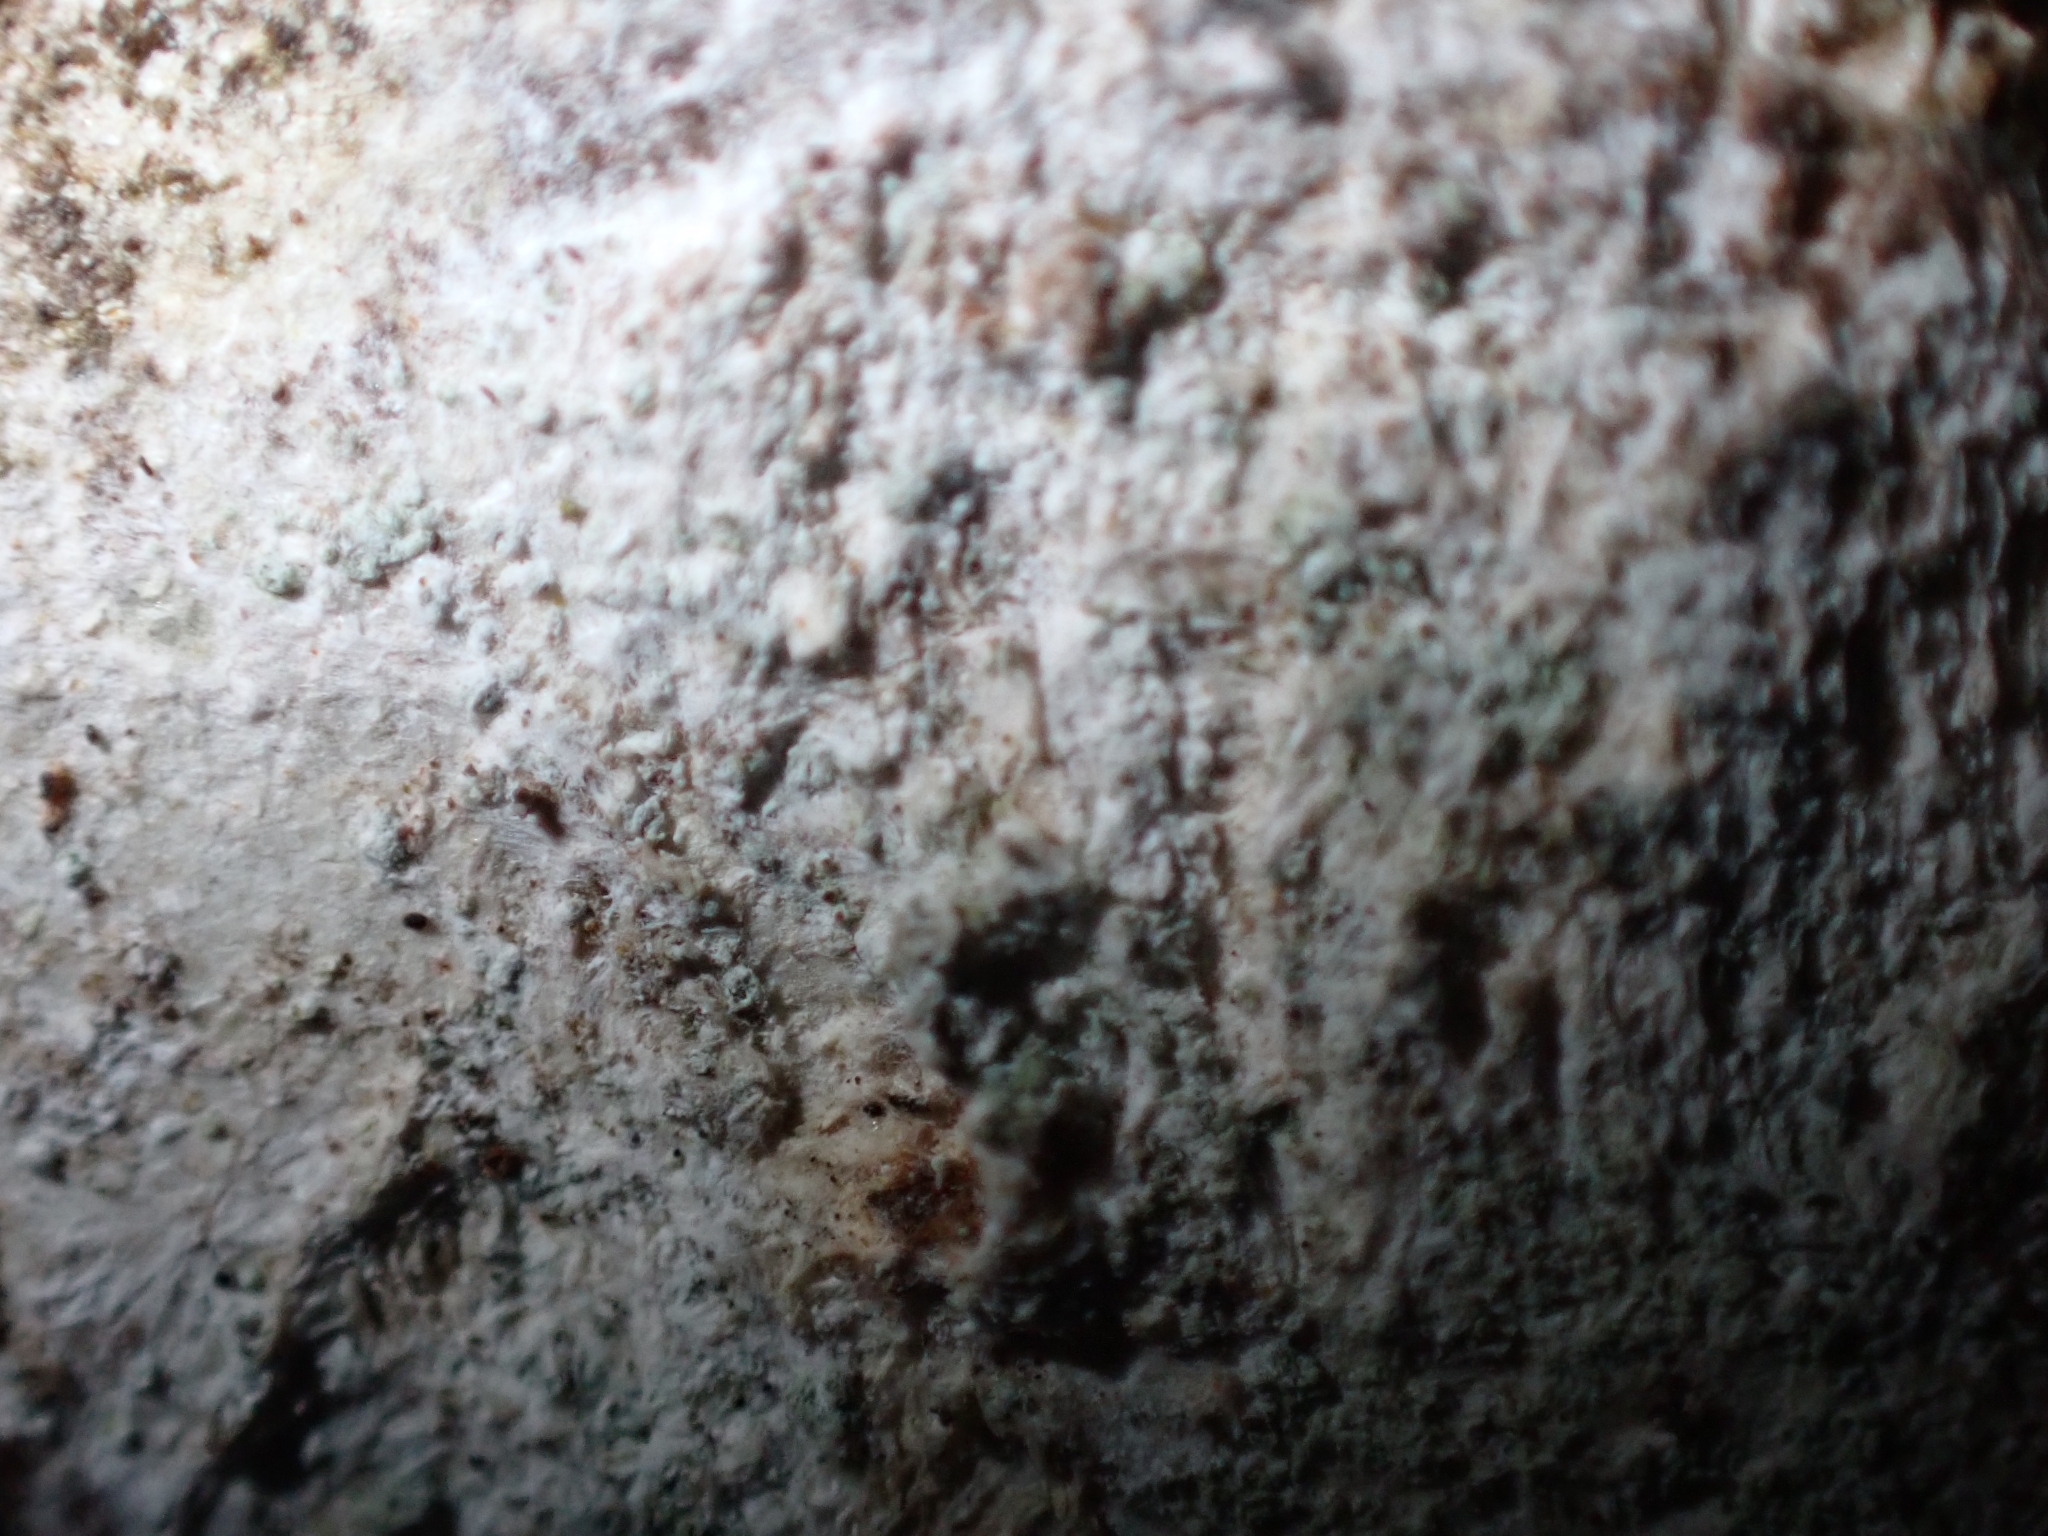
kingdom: Fungi
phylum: Ascomycota
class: Lecanoromycetes
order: Ostropales
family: Phlyctidaceae
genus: Phlyctis
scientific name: Phlyctis argena
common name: Whitewash lichen
